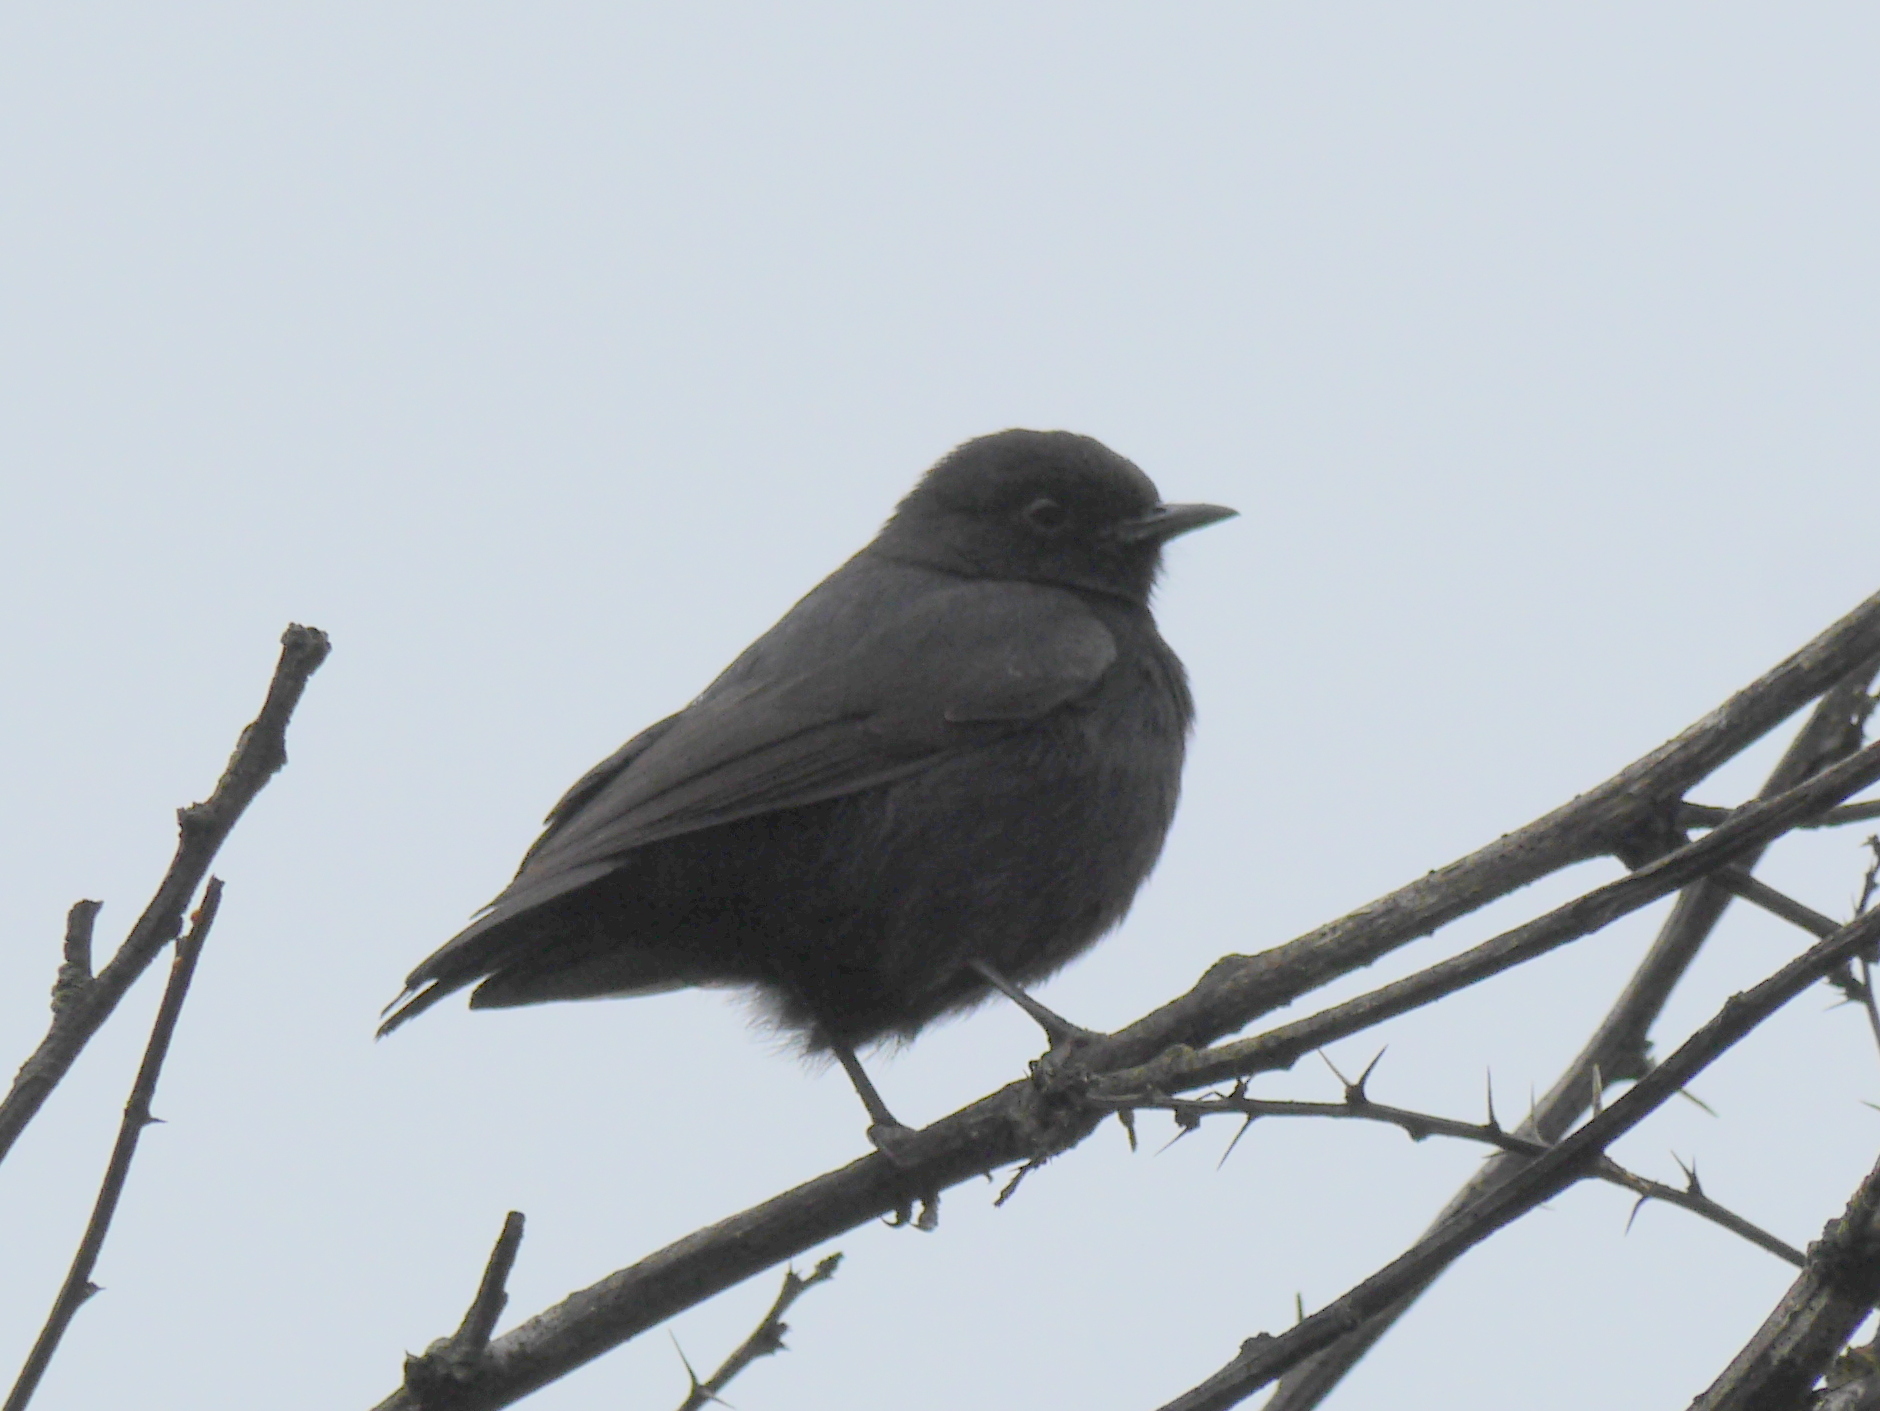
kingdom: Animalia
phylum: Chordata
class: Aves
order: Passeriformes
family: Muscicapidae
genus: Melaenornis
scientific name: Melaenornis edolioides
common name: Northern black flycatcher
